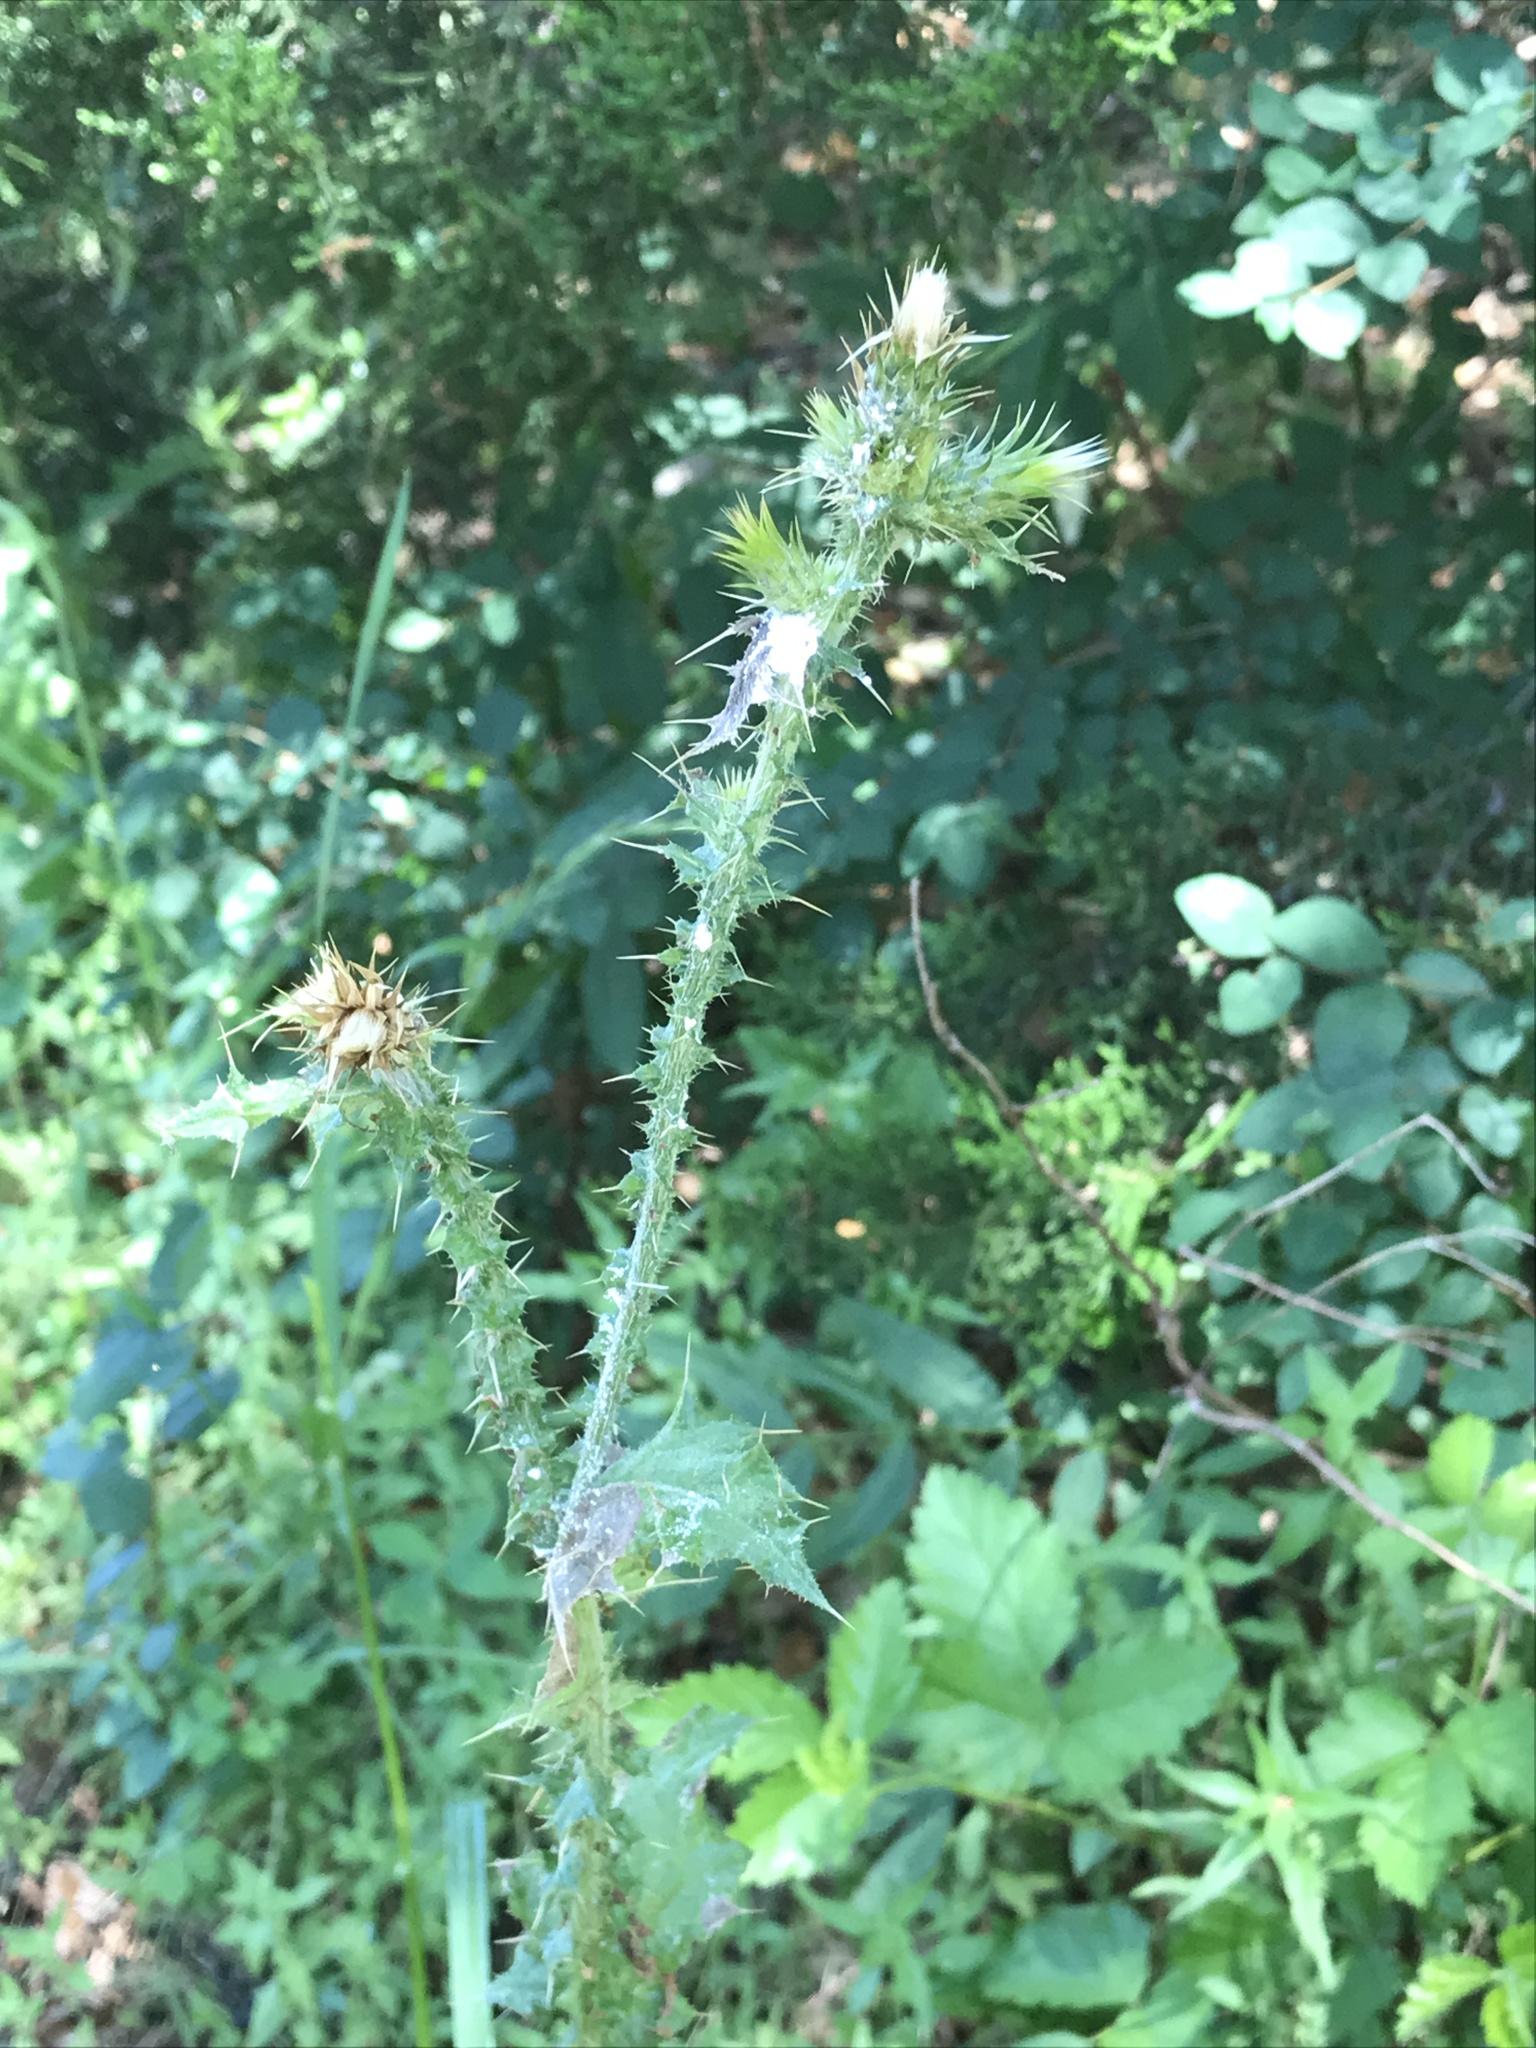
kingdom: Plantae
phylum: Tracheophyta
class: Magnoliopsida
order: Asterales
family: Asteraceae
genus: Carduus
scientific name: Carduus tenuiflorus
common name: Slender thistle
